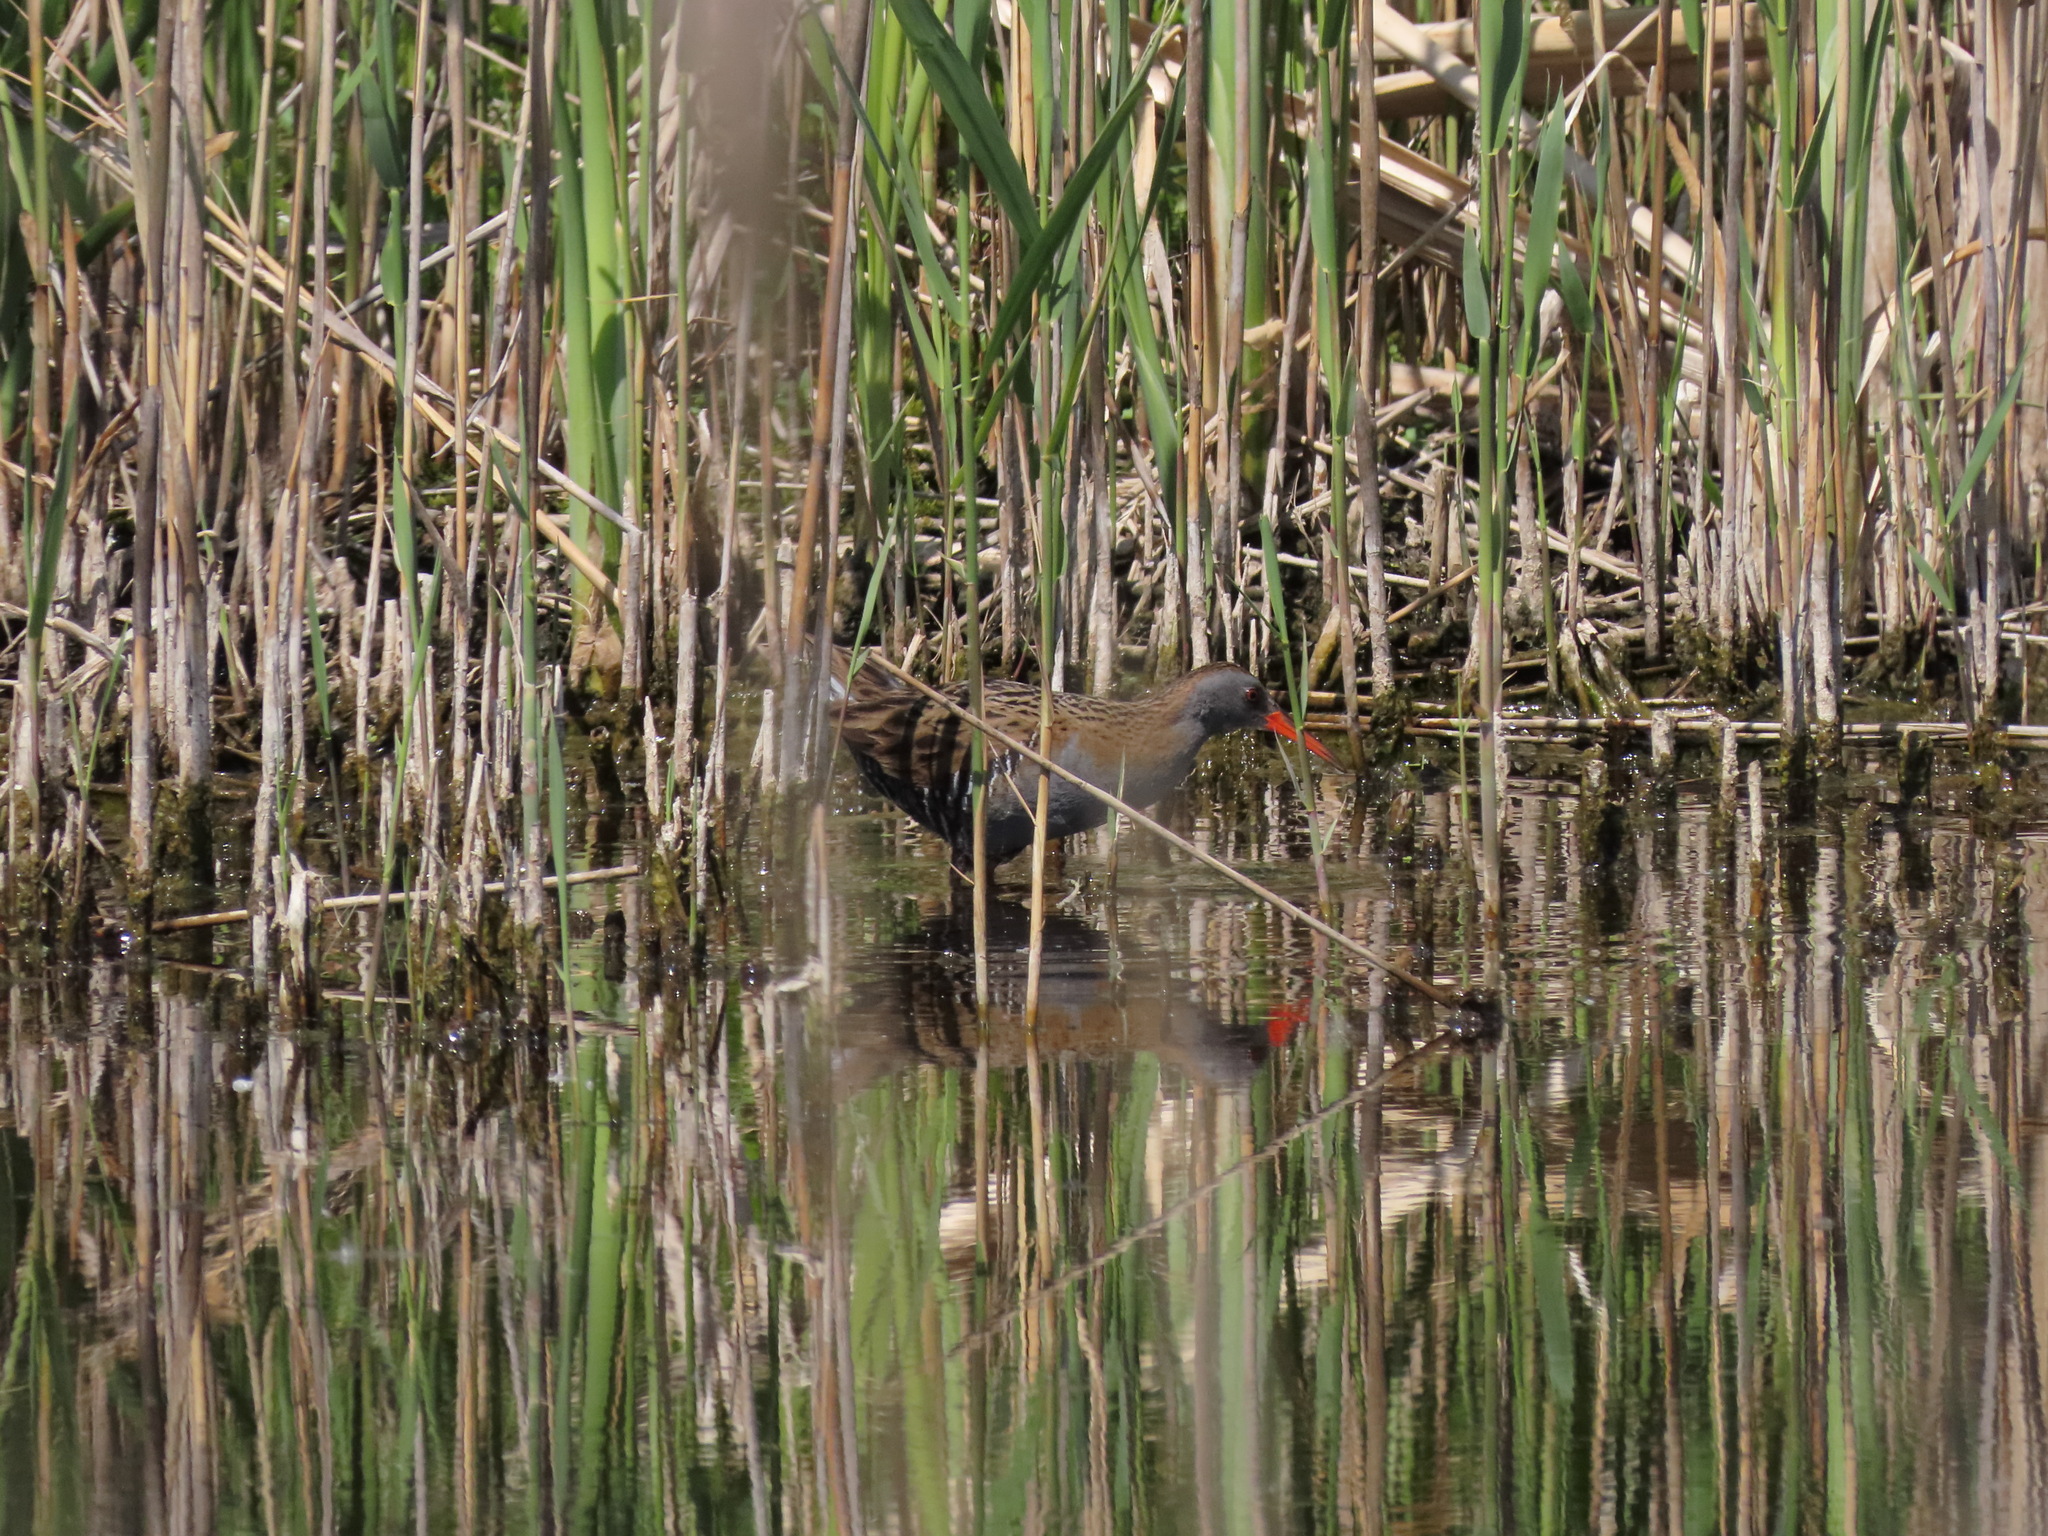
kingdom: Animalia
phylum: Chordata
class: Aves
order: Gruiformes
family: Rallidae
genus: Rallus
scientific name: Rallus aquaticus
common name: Water rail
